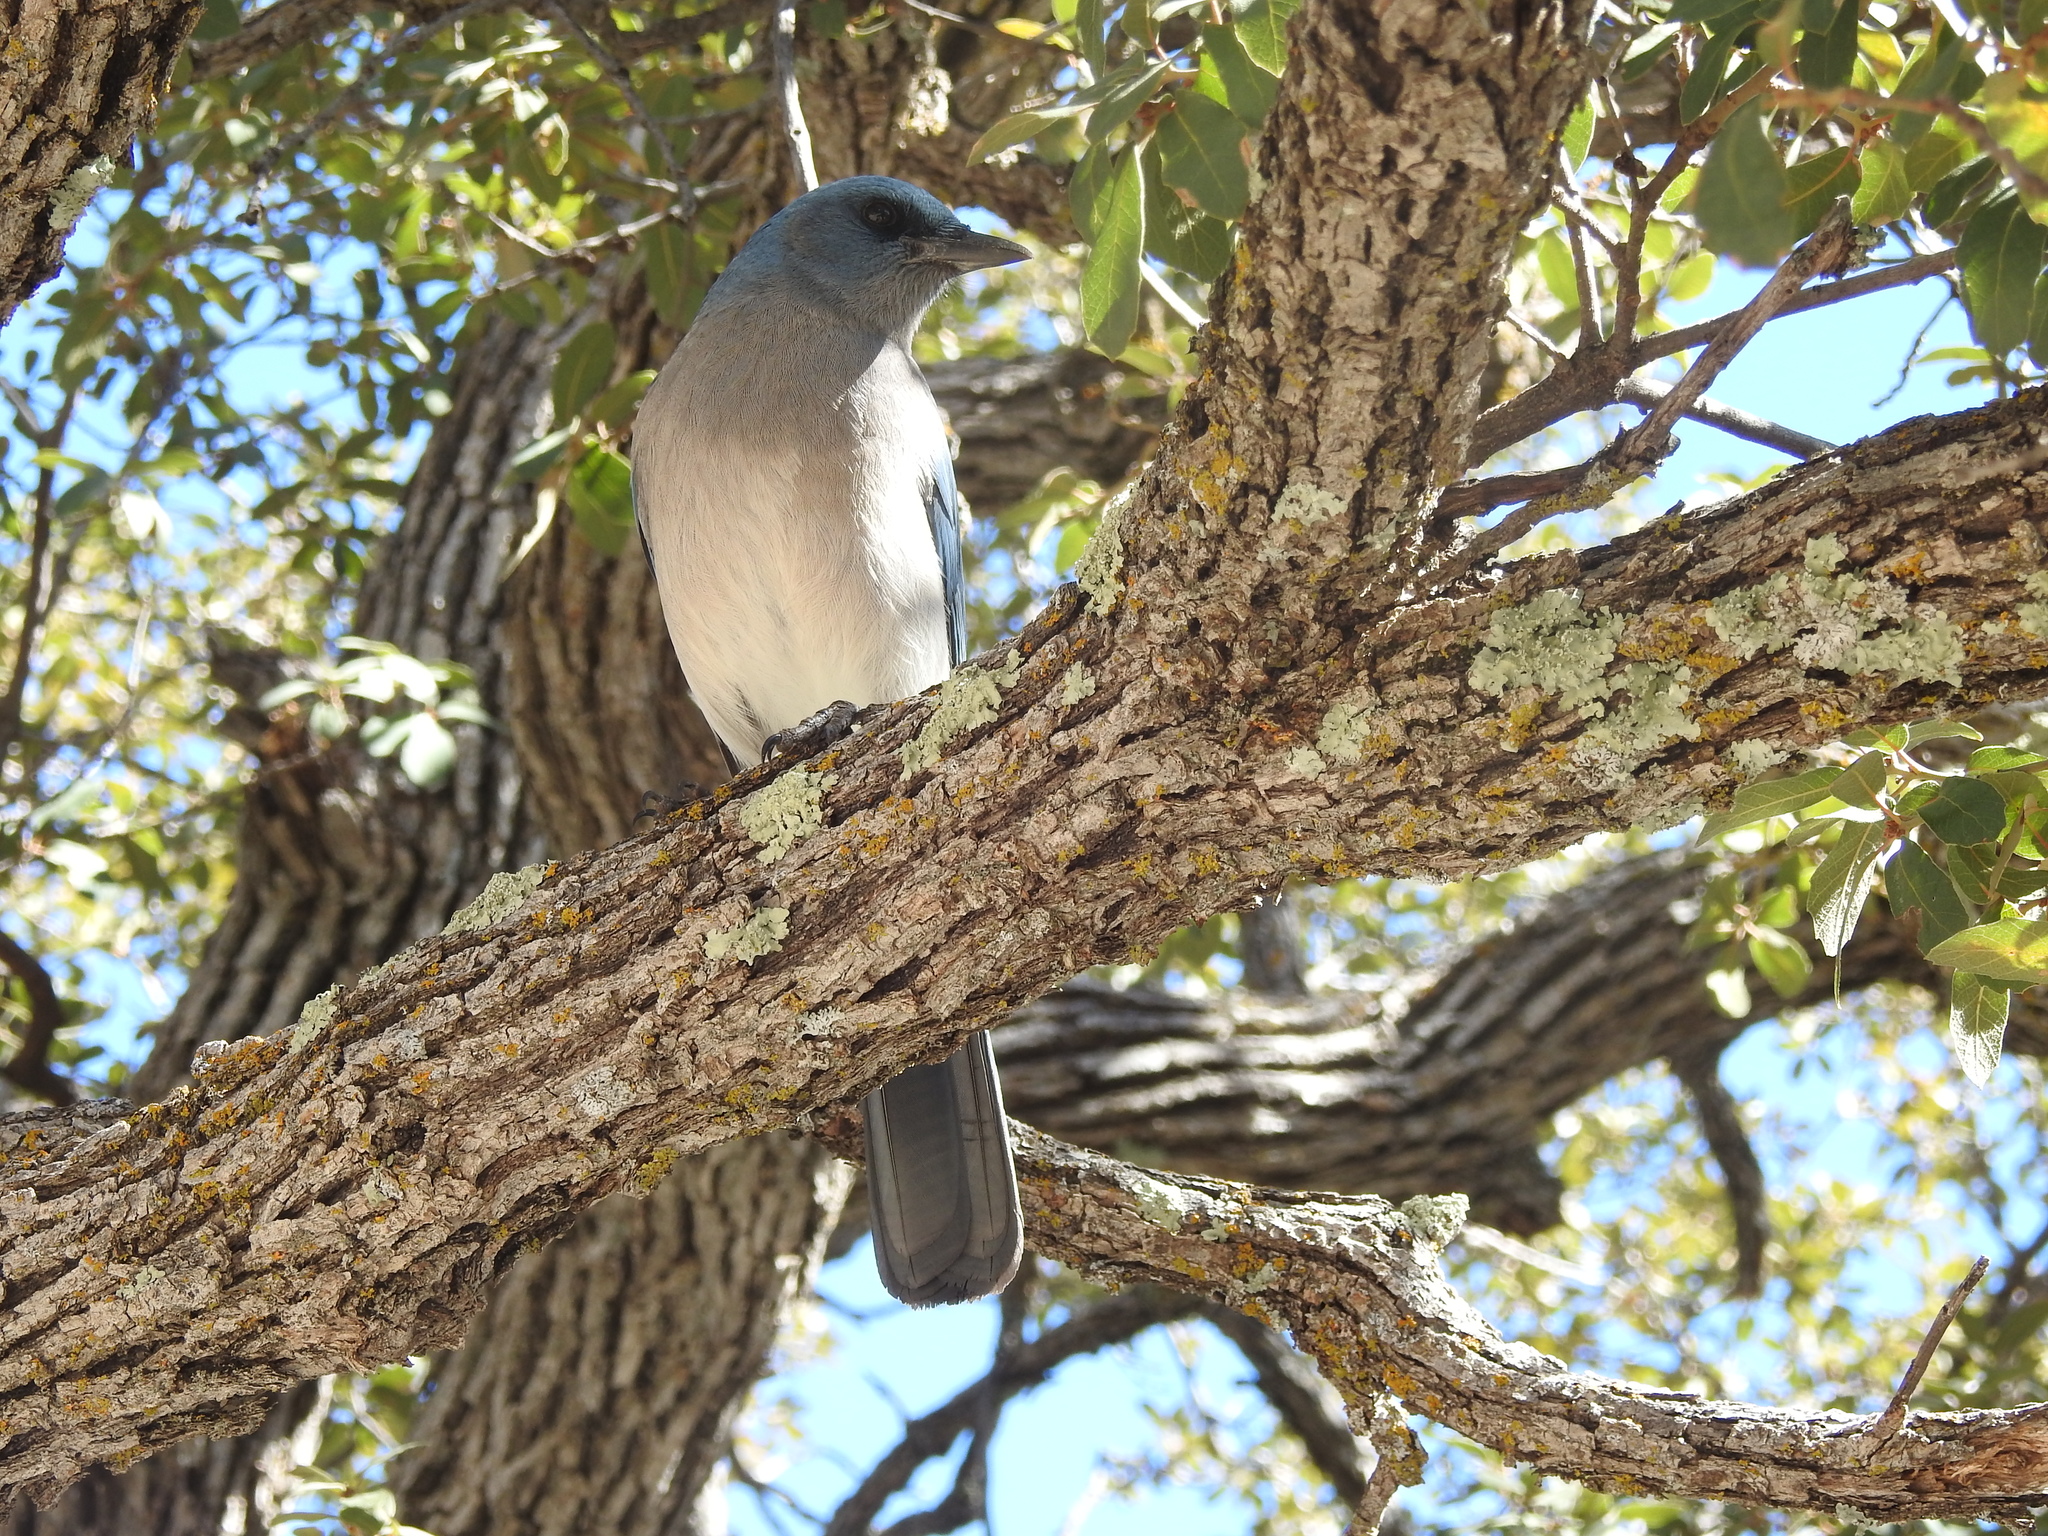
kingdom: Animalia
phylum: Chordata
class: Aves
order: Passeriformes
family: Corvidae
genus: Aphelocoma
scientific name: Aphelocoma wollweberi
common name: Mexican jay
